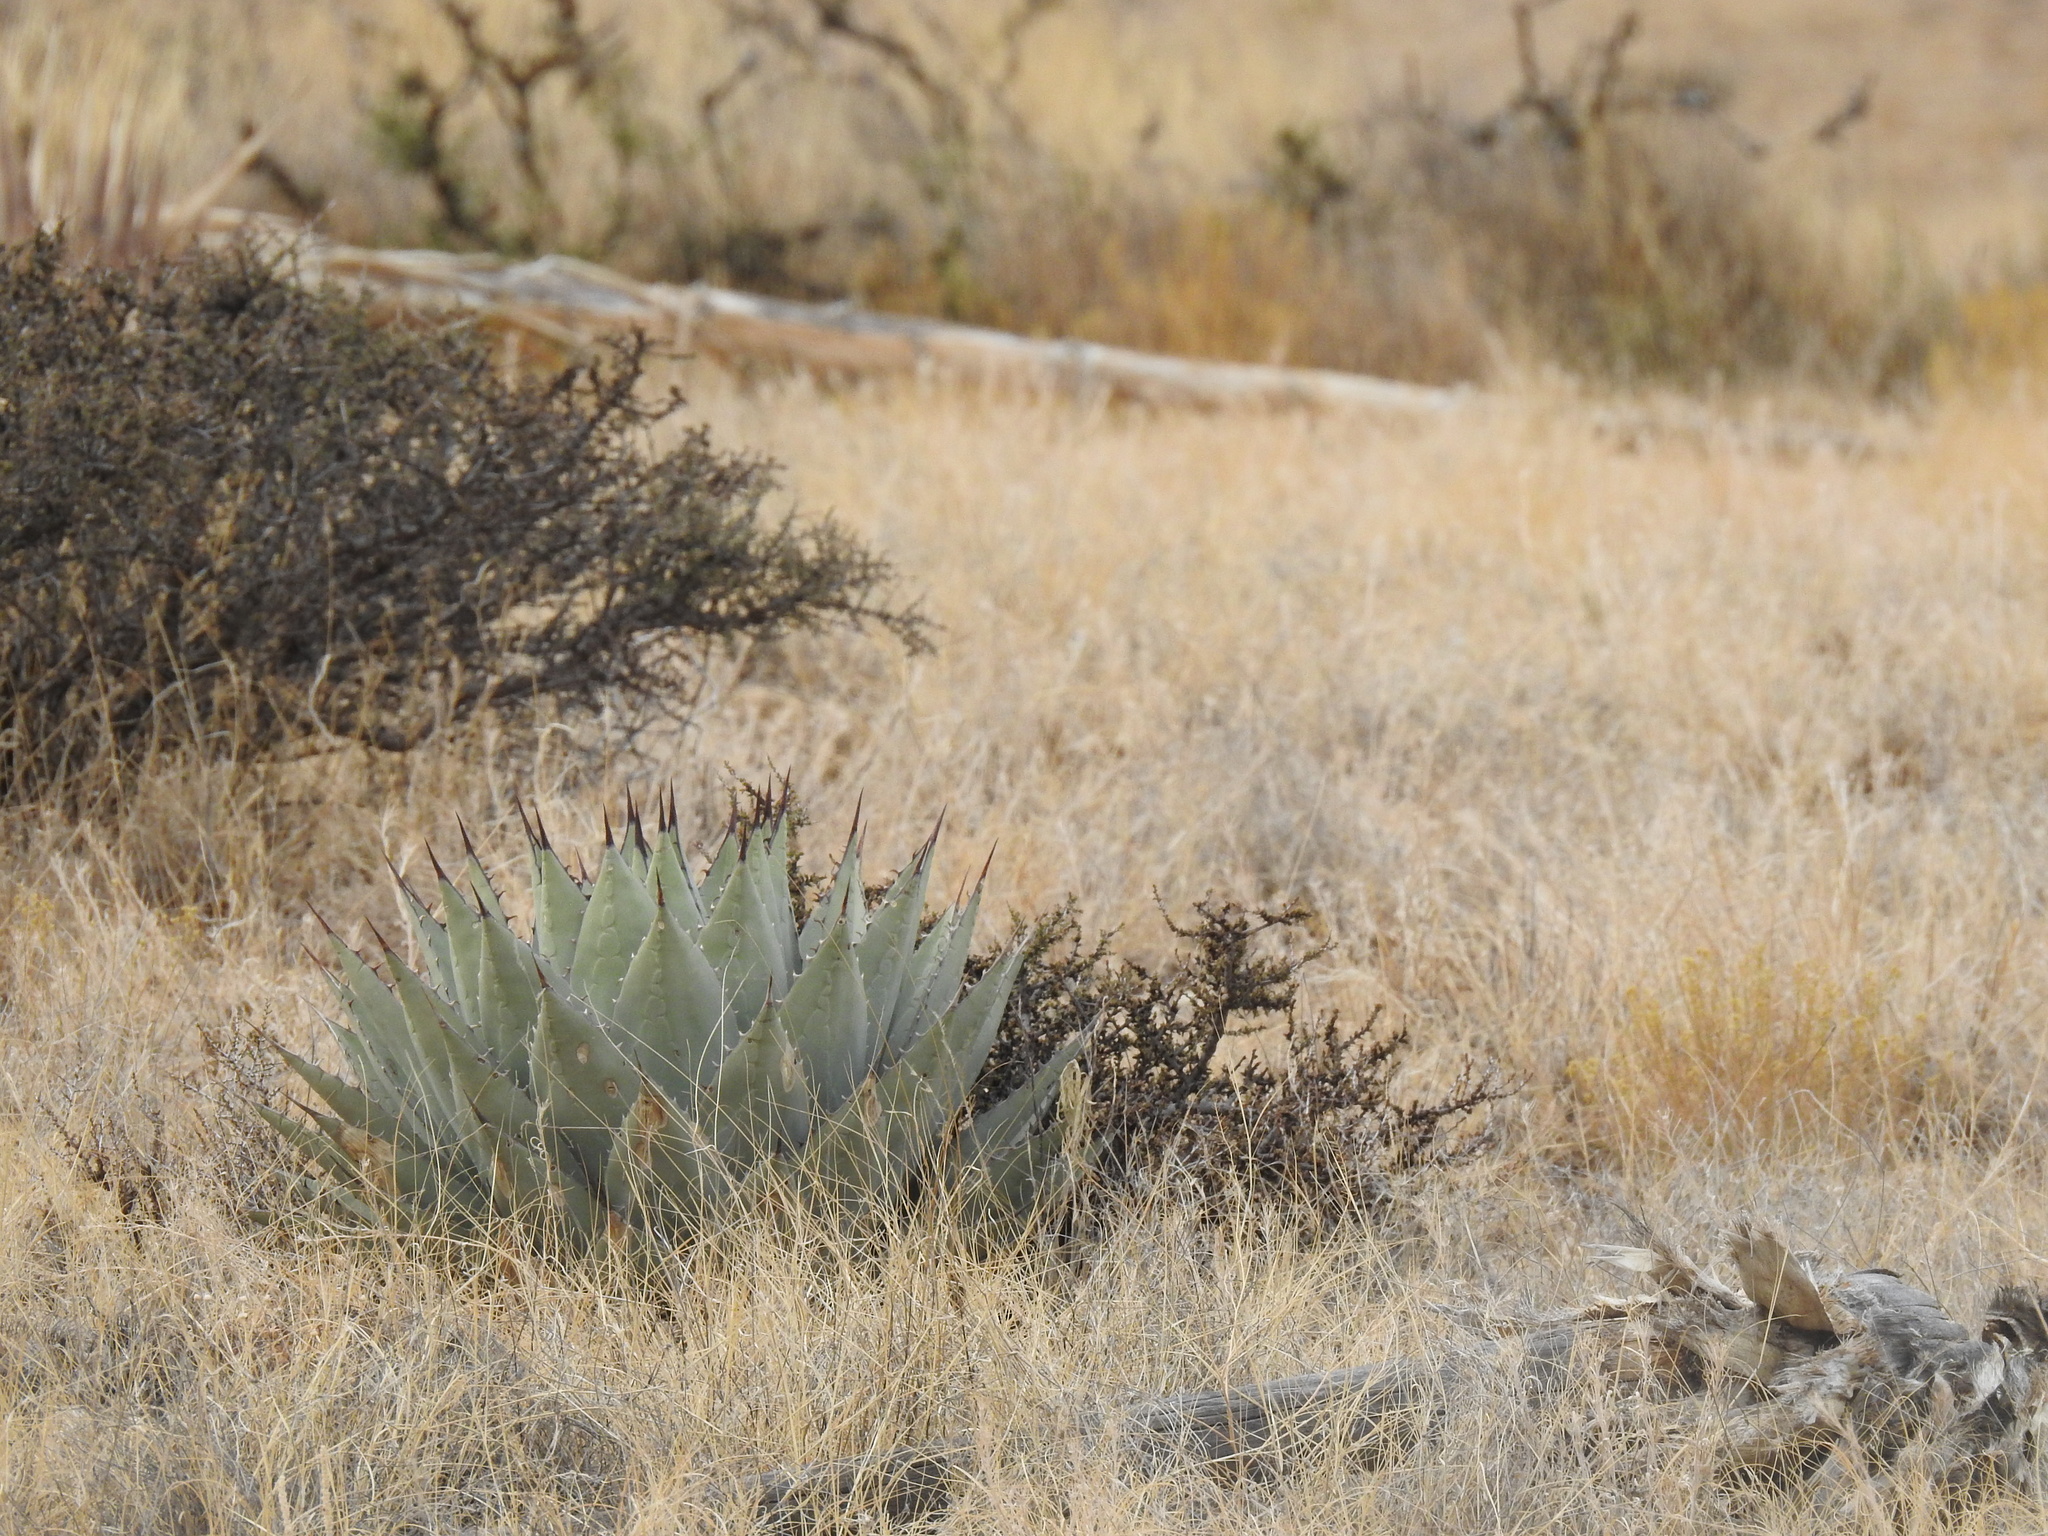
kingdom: Plantae
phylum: Tracheophyta
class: Liliopsida
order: Asparagales
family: Asparagaceae
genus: Agave
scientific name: Agave parryi
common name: Parry's agave
